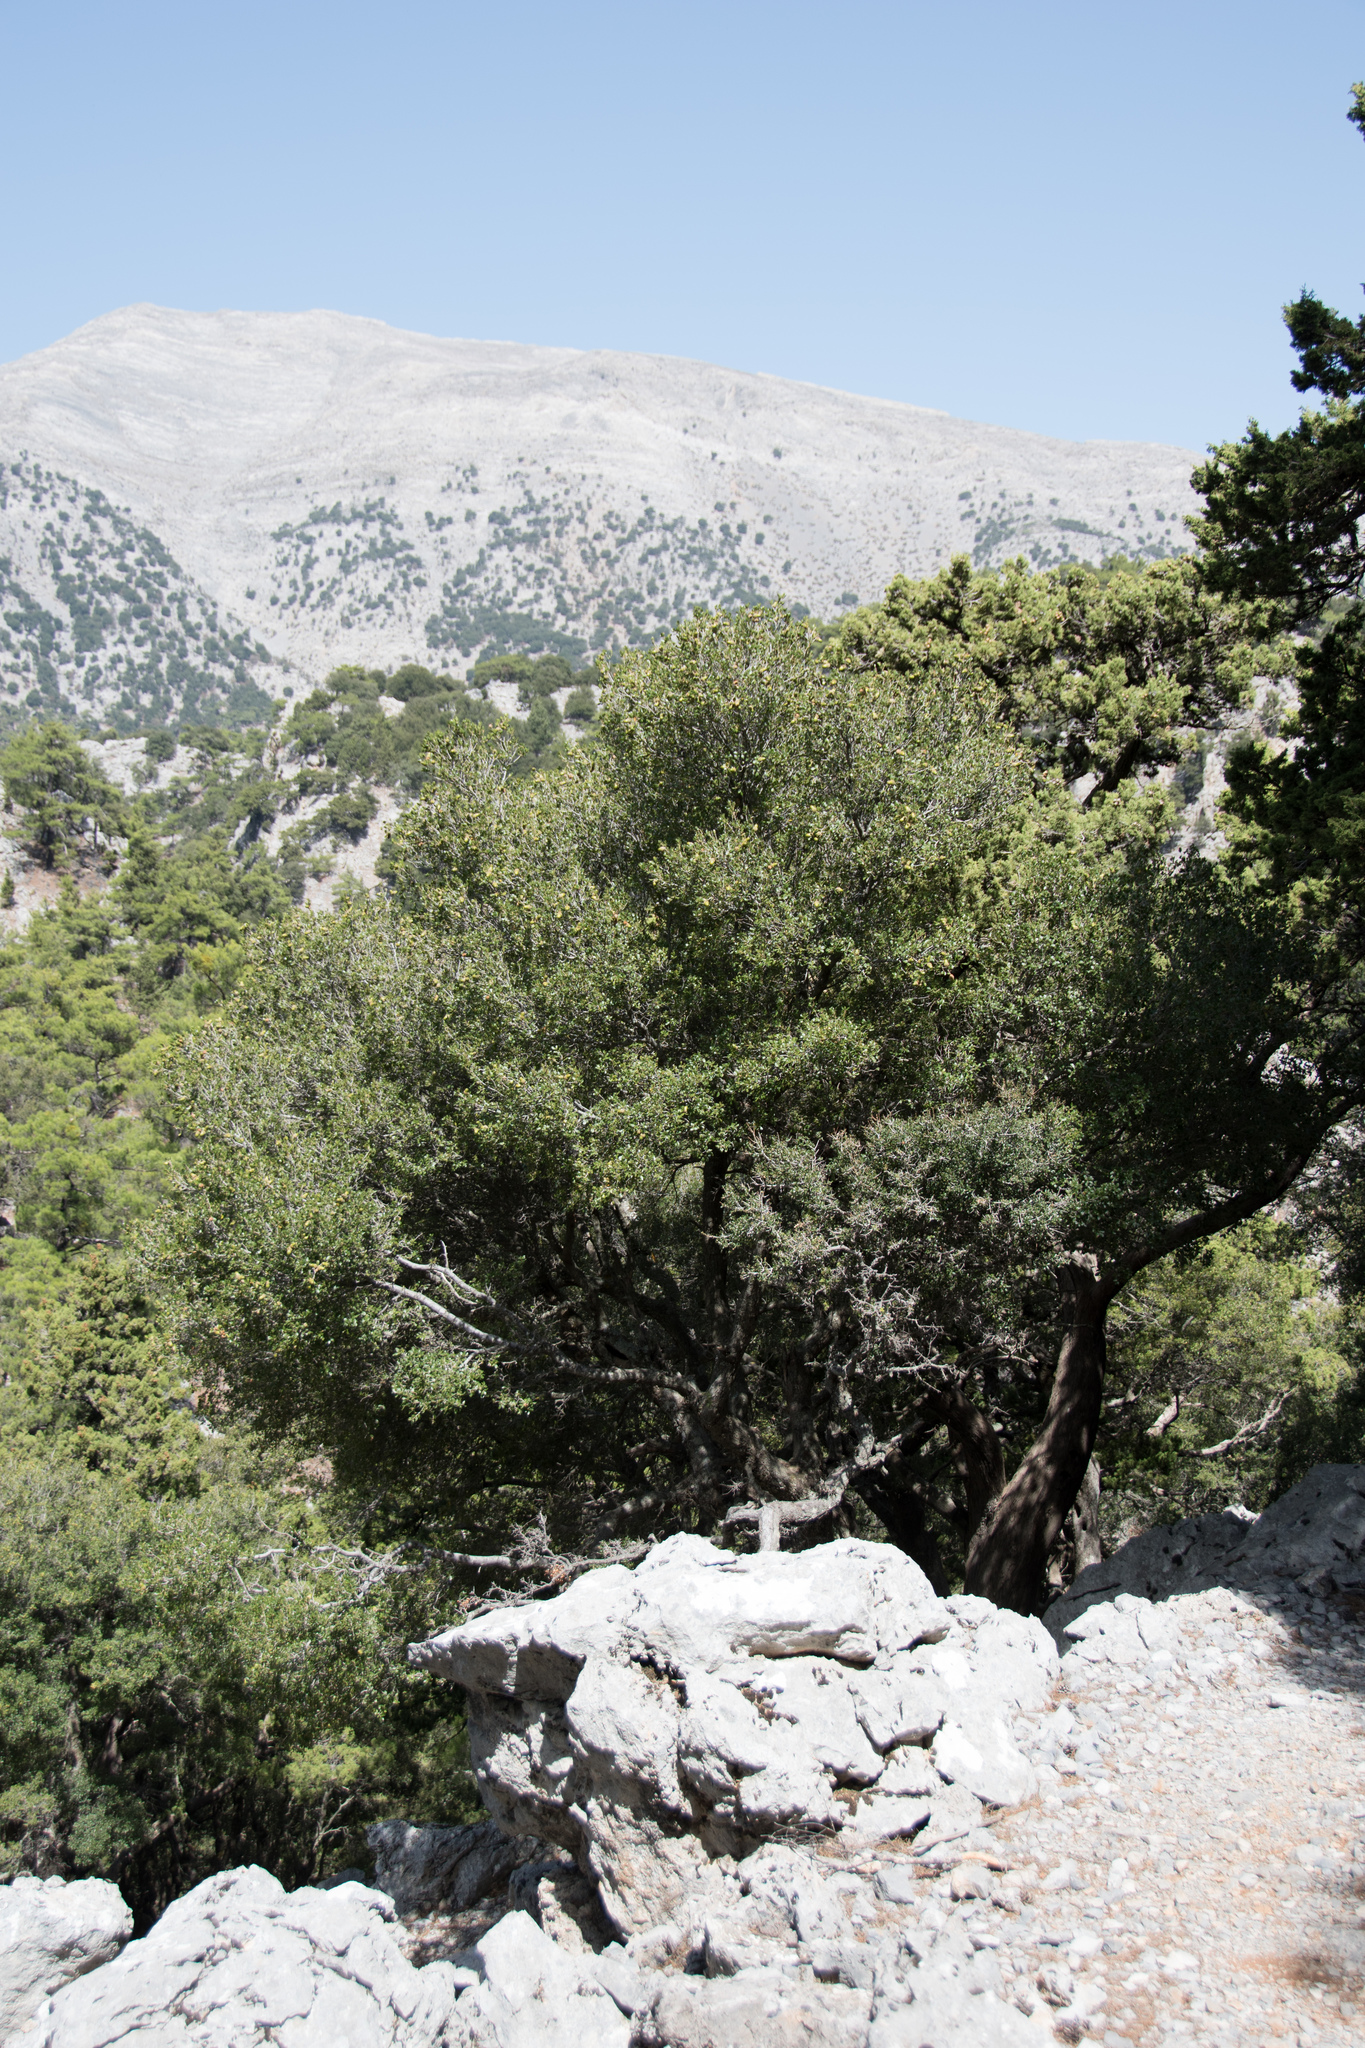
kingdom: Plantae
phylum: Tracheophyta
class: Magnoliopsida
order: Fagales
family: Fagaceae
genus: Quercus
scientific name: Quercus coccifera
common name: Kermes oak
